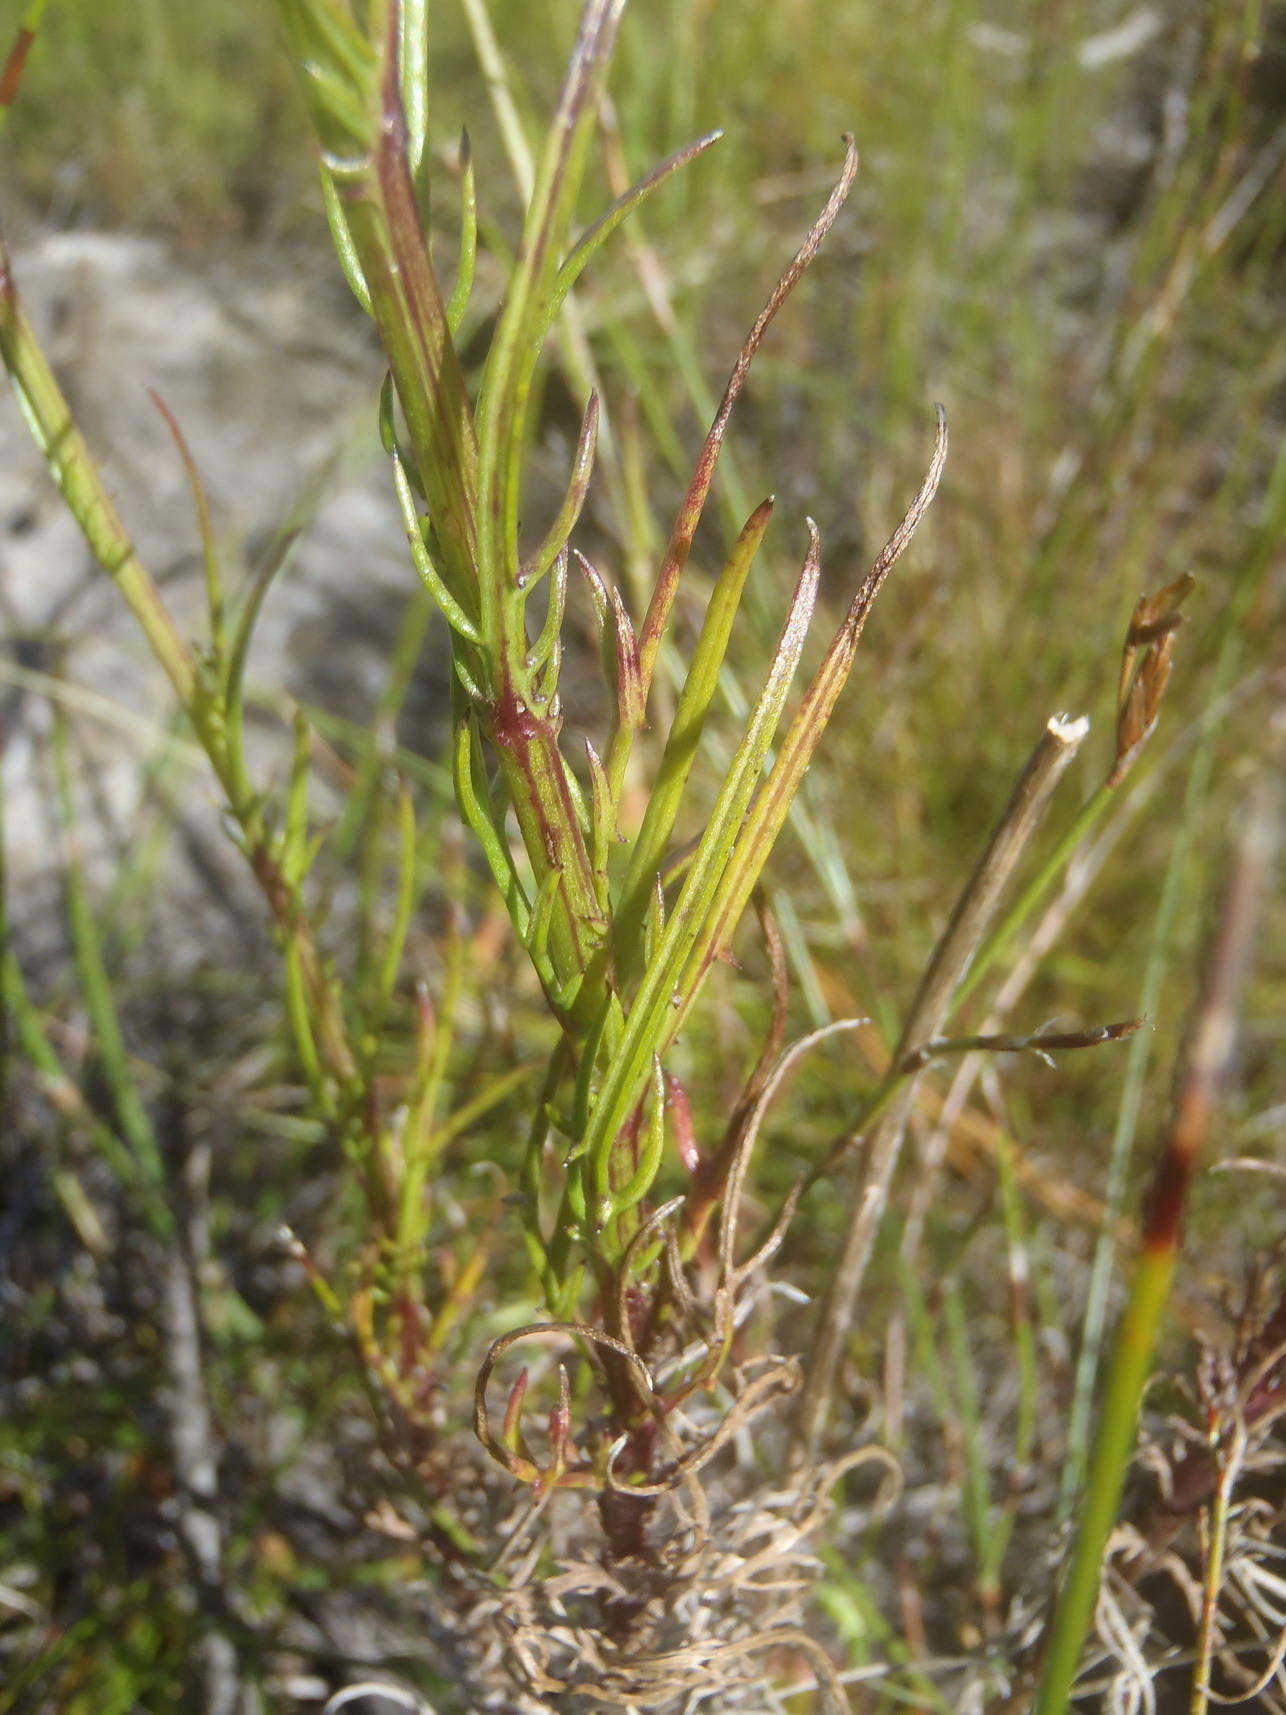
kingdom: Plantae
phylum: Tracheophyta
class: Magnoliopsida
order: Asterales
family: Asteraceae
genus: Senecio
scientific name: Senecio paniculatus
